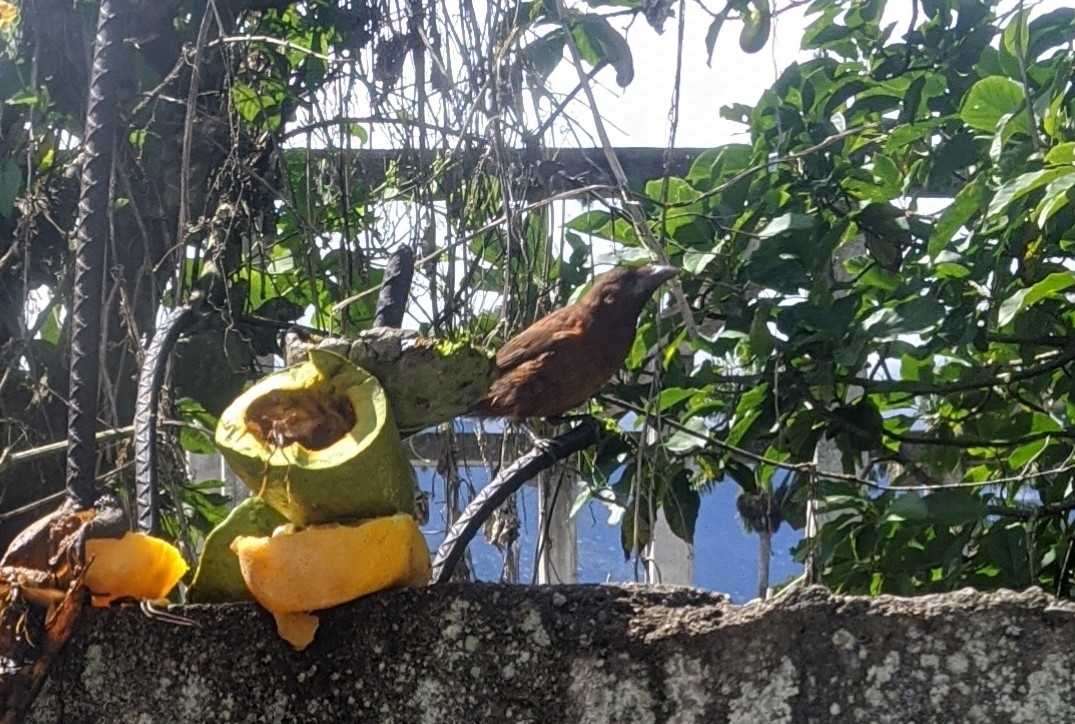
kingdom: Animalia
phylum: Chordata
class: Aves
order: Passeriformes
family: Thraupidae
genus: Ramphocelus
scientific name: Ramphocelus carbo
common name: Silver-beaked tanager
